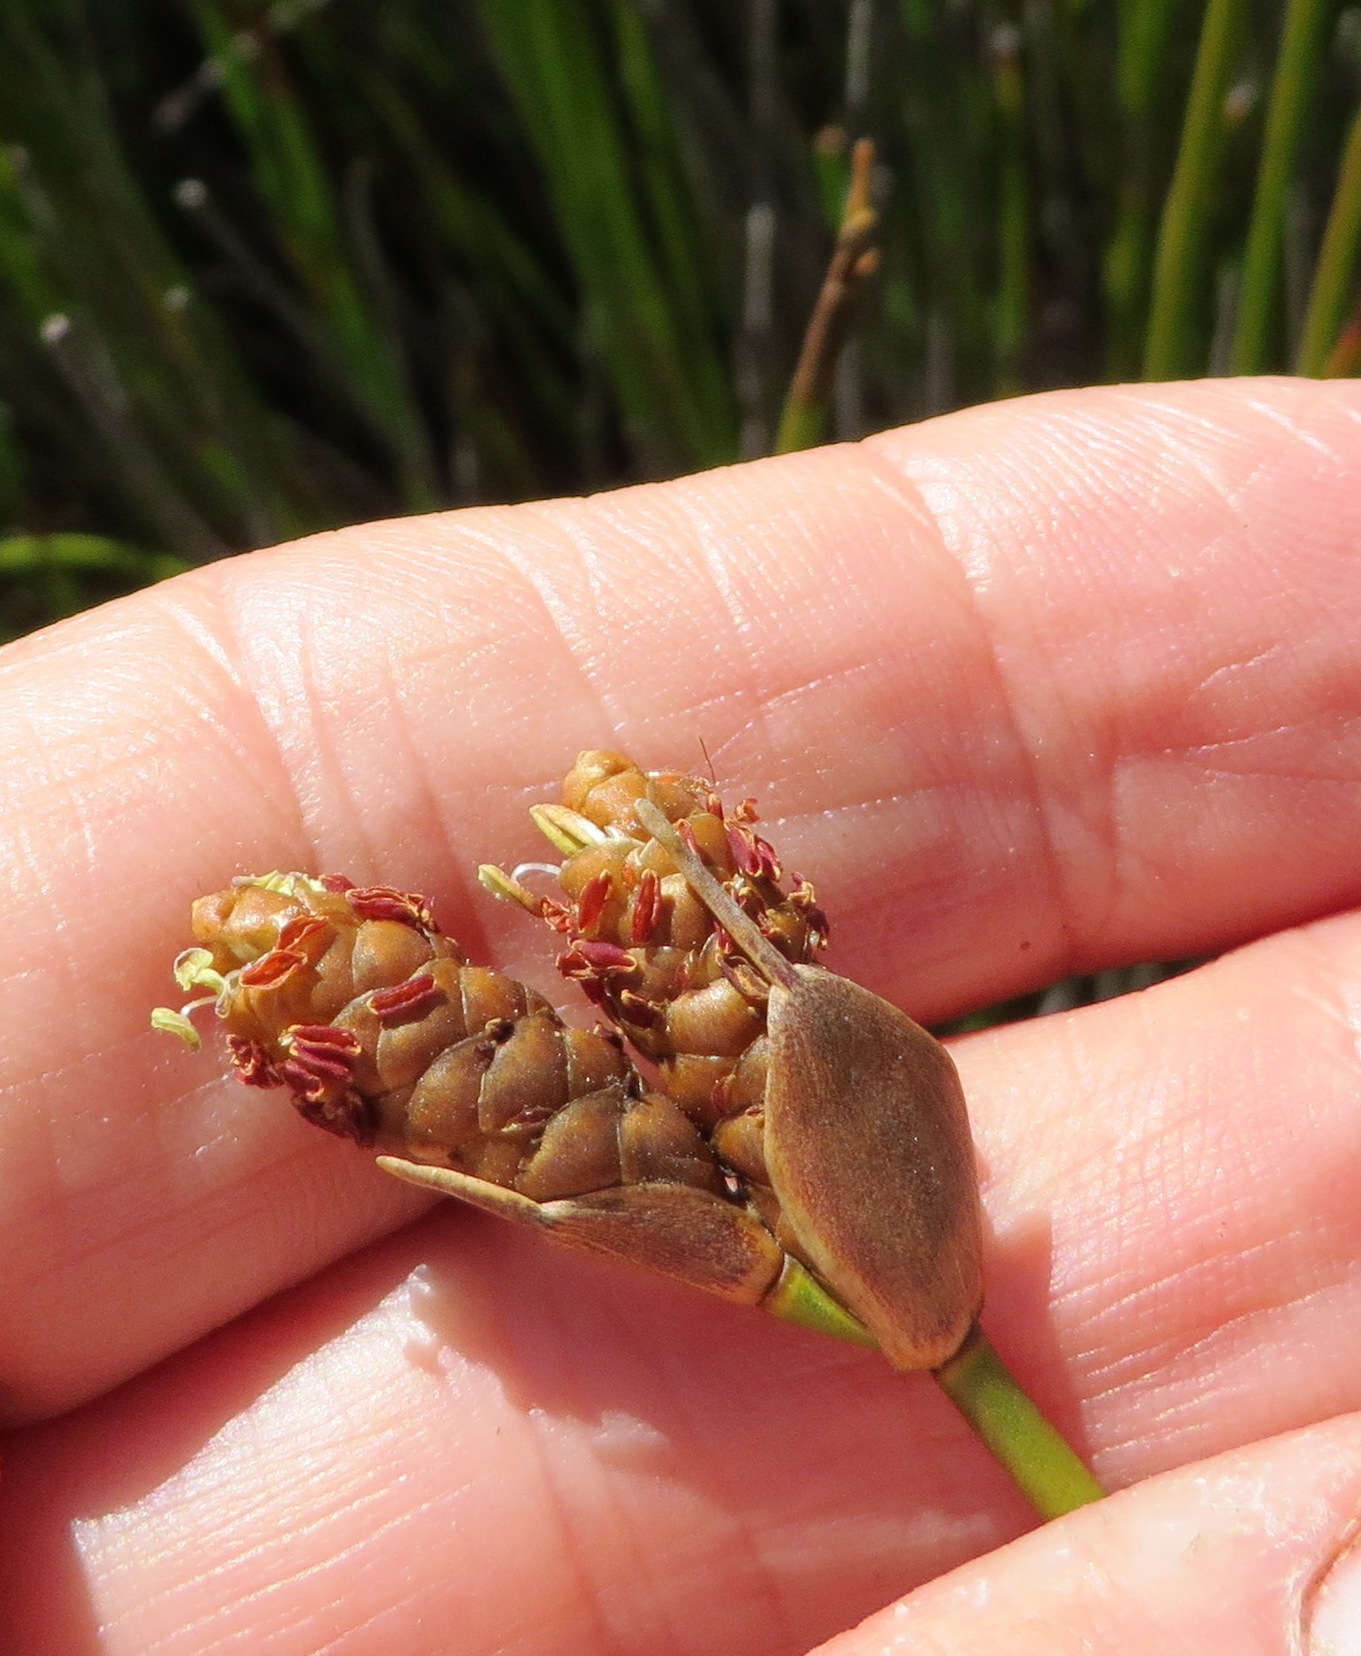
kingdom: Plantae
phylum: Tracheophyta
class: Liliopsida
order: Poales
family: Restionaceae
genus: Nevillea
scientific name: Nevillea obtusissimus
